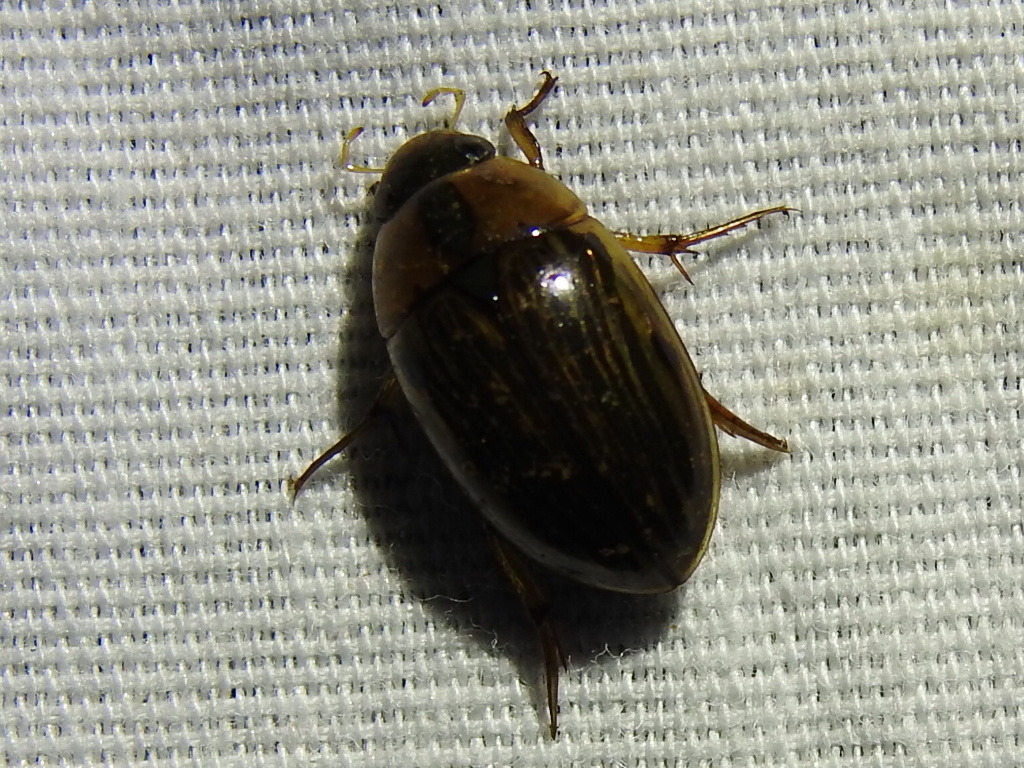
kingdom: Animalia
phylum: Arthropoda
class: Insecta
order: Coleoptera
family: Hydrophilidae
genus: Tropisternus
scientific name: Tropisternus collaris
